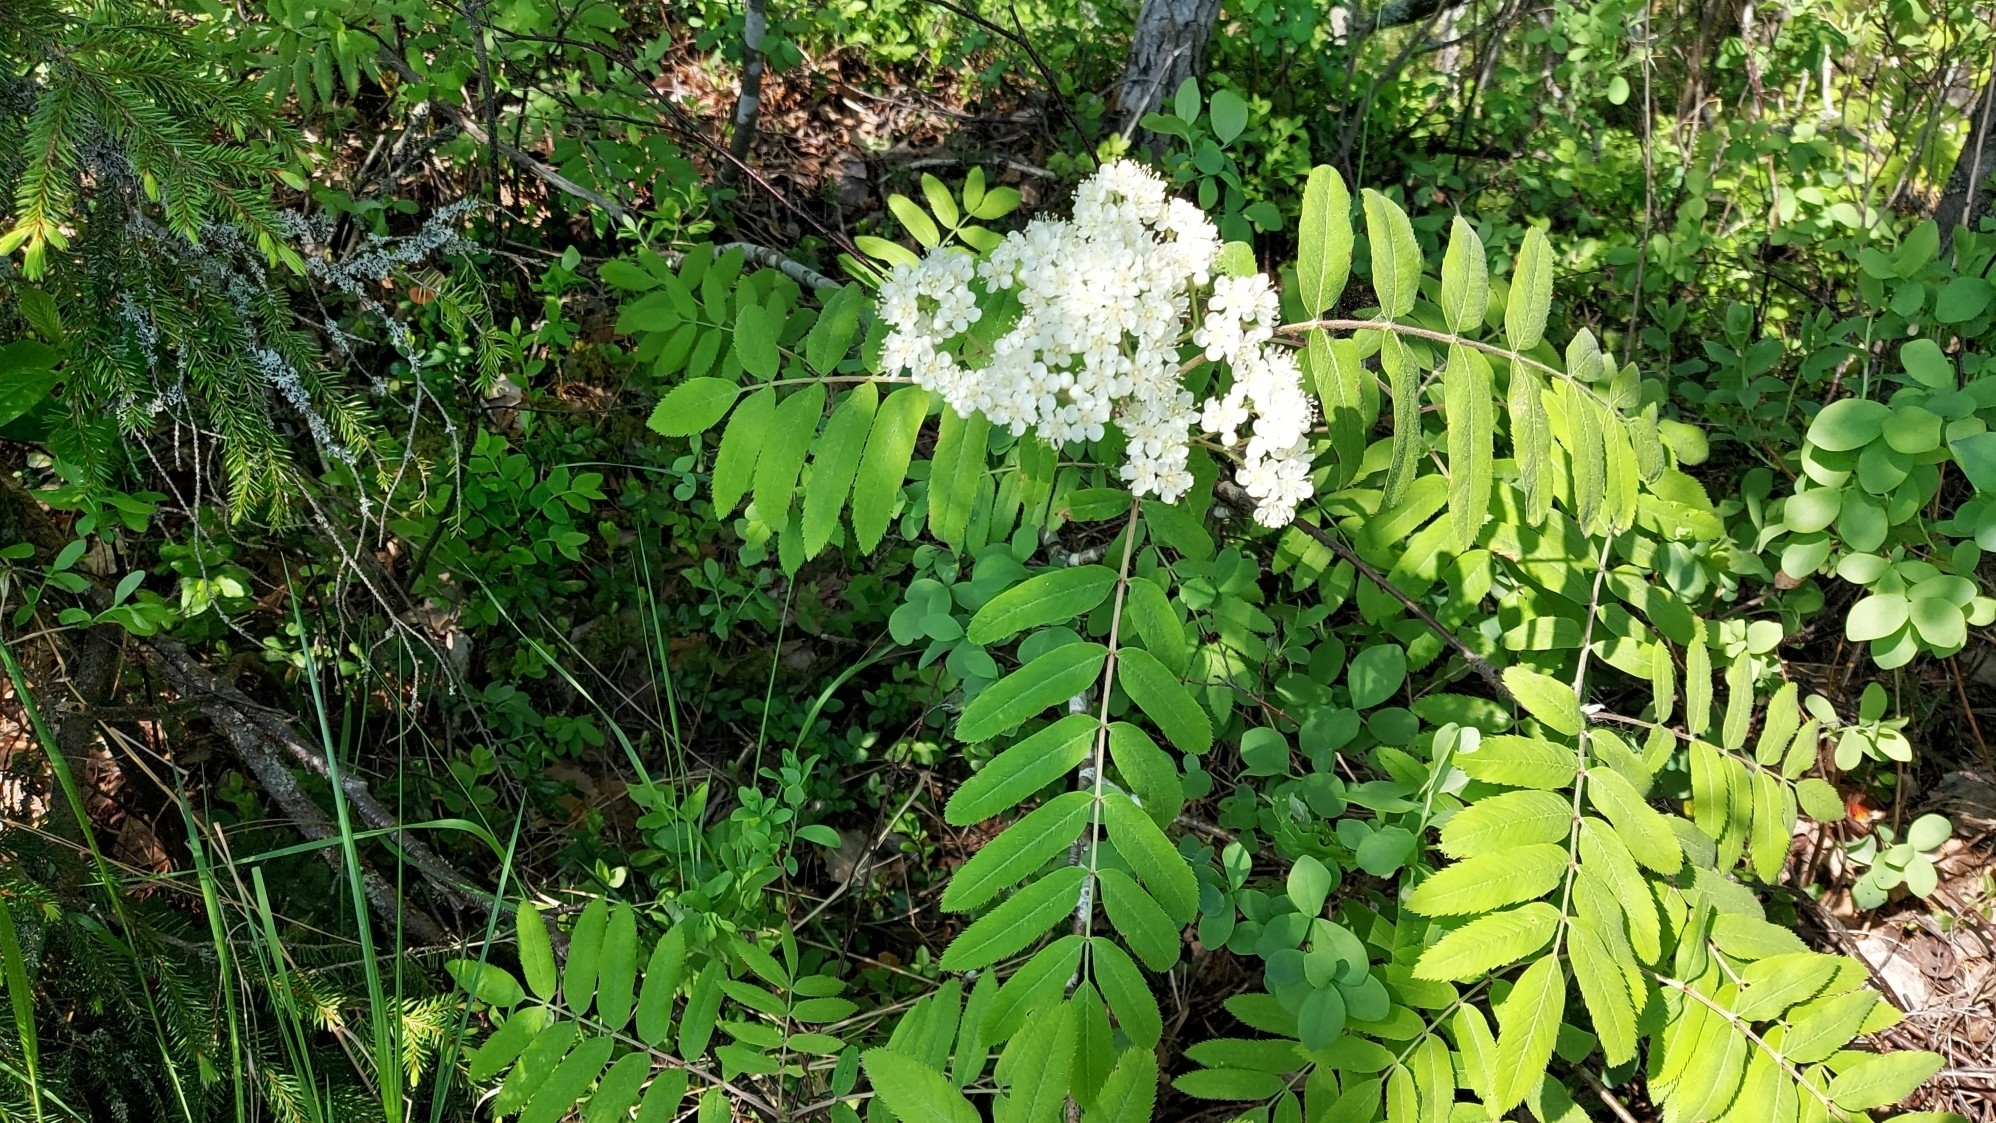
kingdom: Plantae
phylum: Tracheophyta
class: Magnoliopsida
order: Rosales
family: Rosaceae
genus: Sorbus
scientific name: Sorbus aucuparia
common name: Rowan
